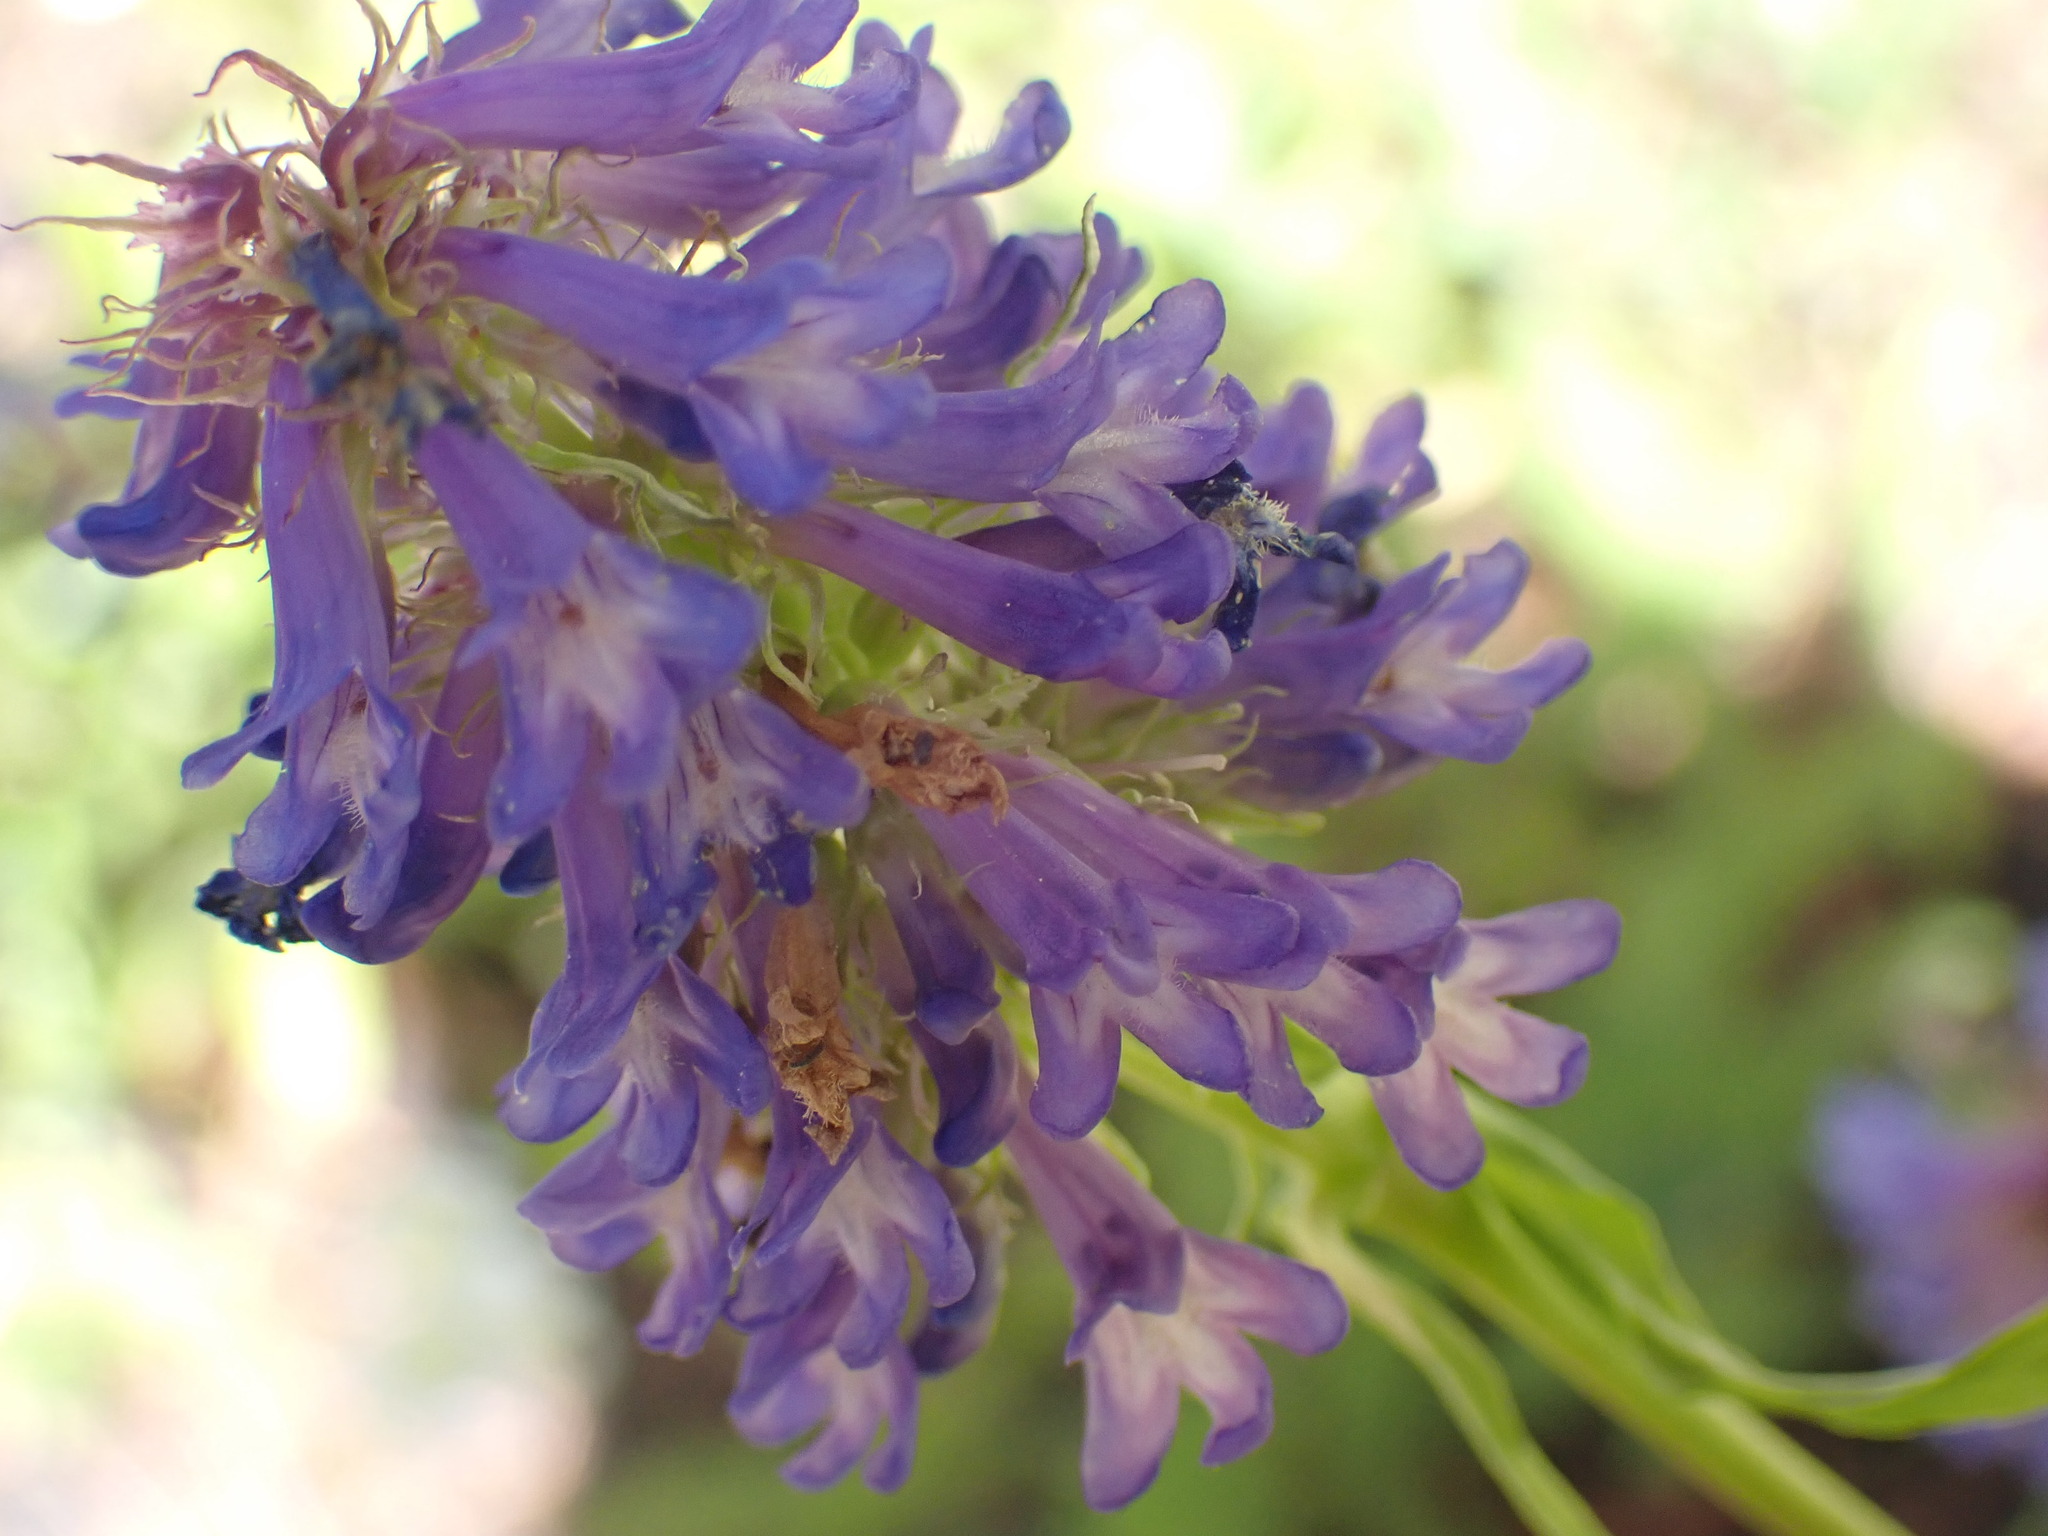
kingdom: Plantae
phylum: Tracheophyta
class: Magnoliopsida
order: Lamiales
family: Plantaginaceae
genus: Penstemon
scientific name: Penstemon procerus
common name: Small-flower penstemon
